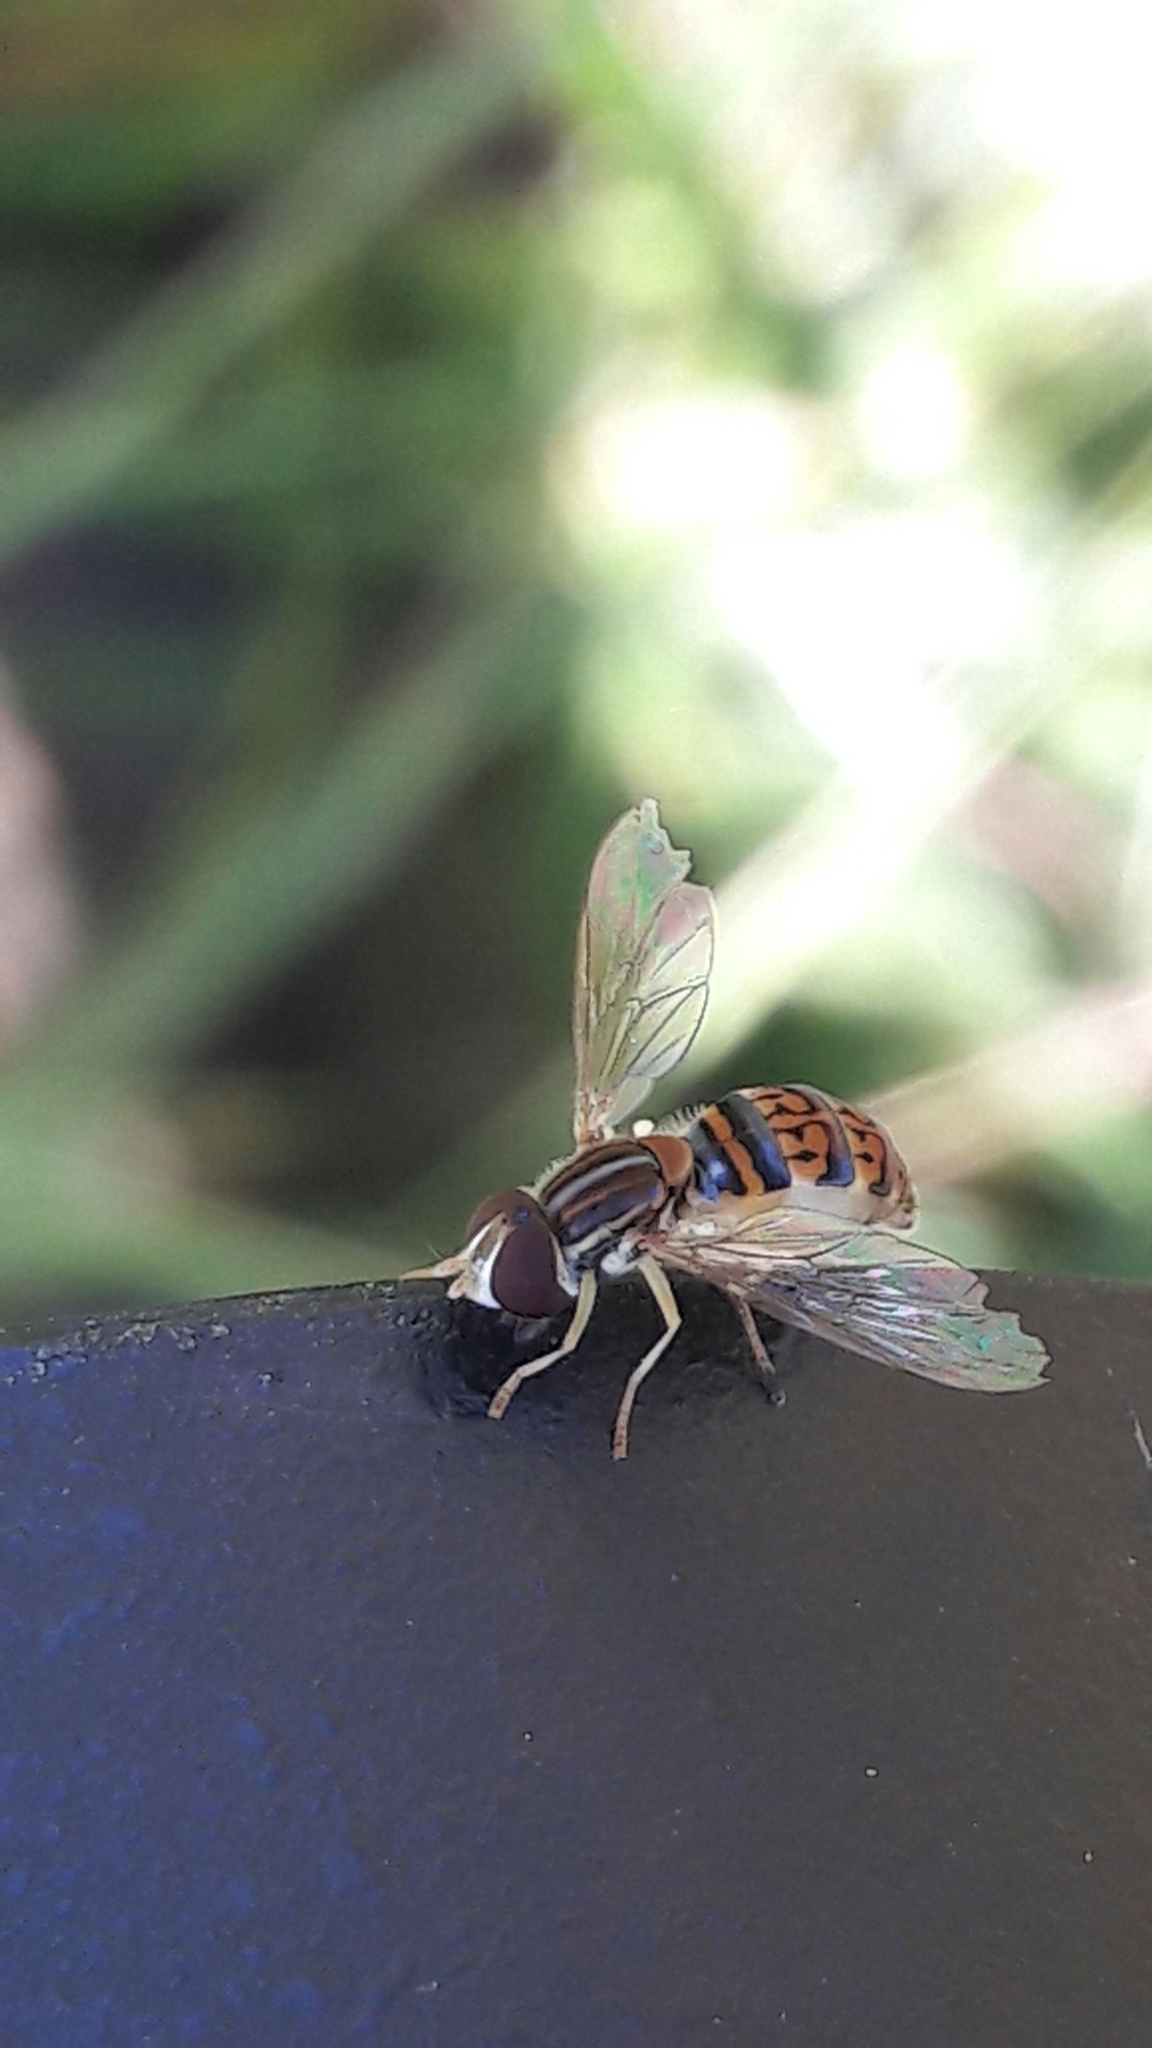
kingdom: Animalia
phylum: Arthropoda
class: Insecta
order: Diptera
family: Syrphidae
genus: Toxomerus
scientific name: Toxomerus
